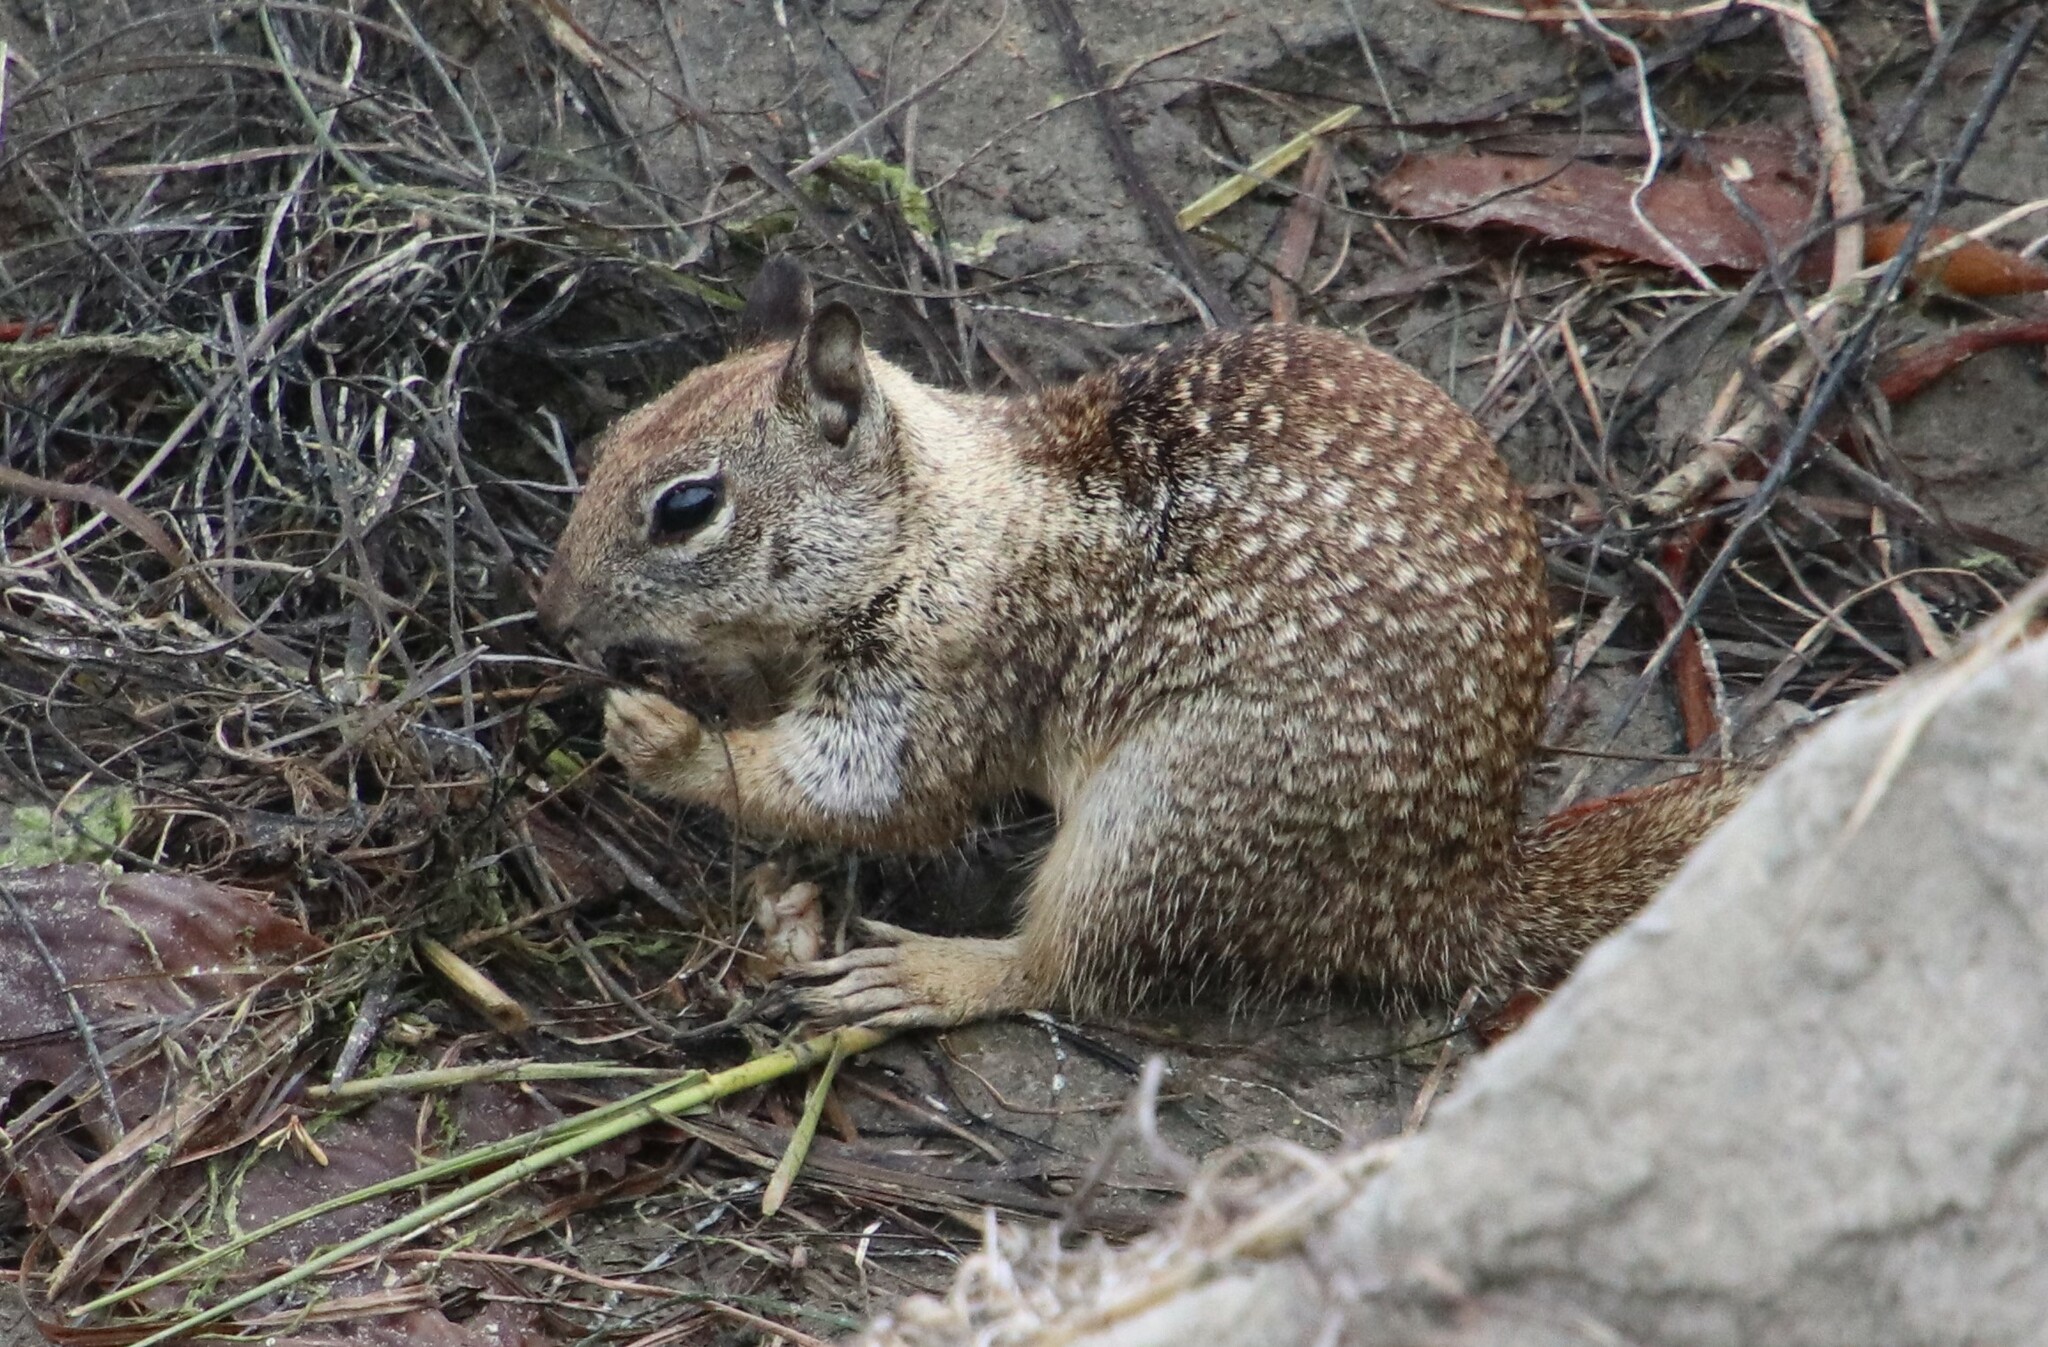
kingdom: Animalia
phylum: Chordata
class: Mammalia
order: Rodentia
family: Sciuridae
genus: Otospermophilus
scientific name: Otospermophilus beecheyi
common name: California ground squirrel
